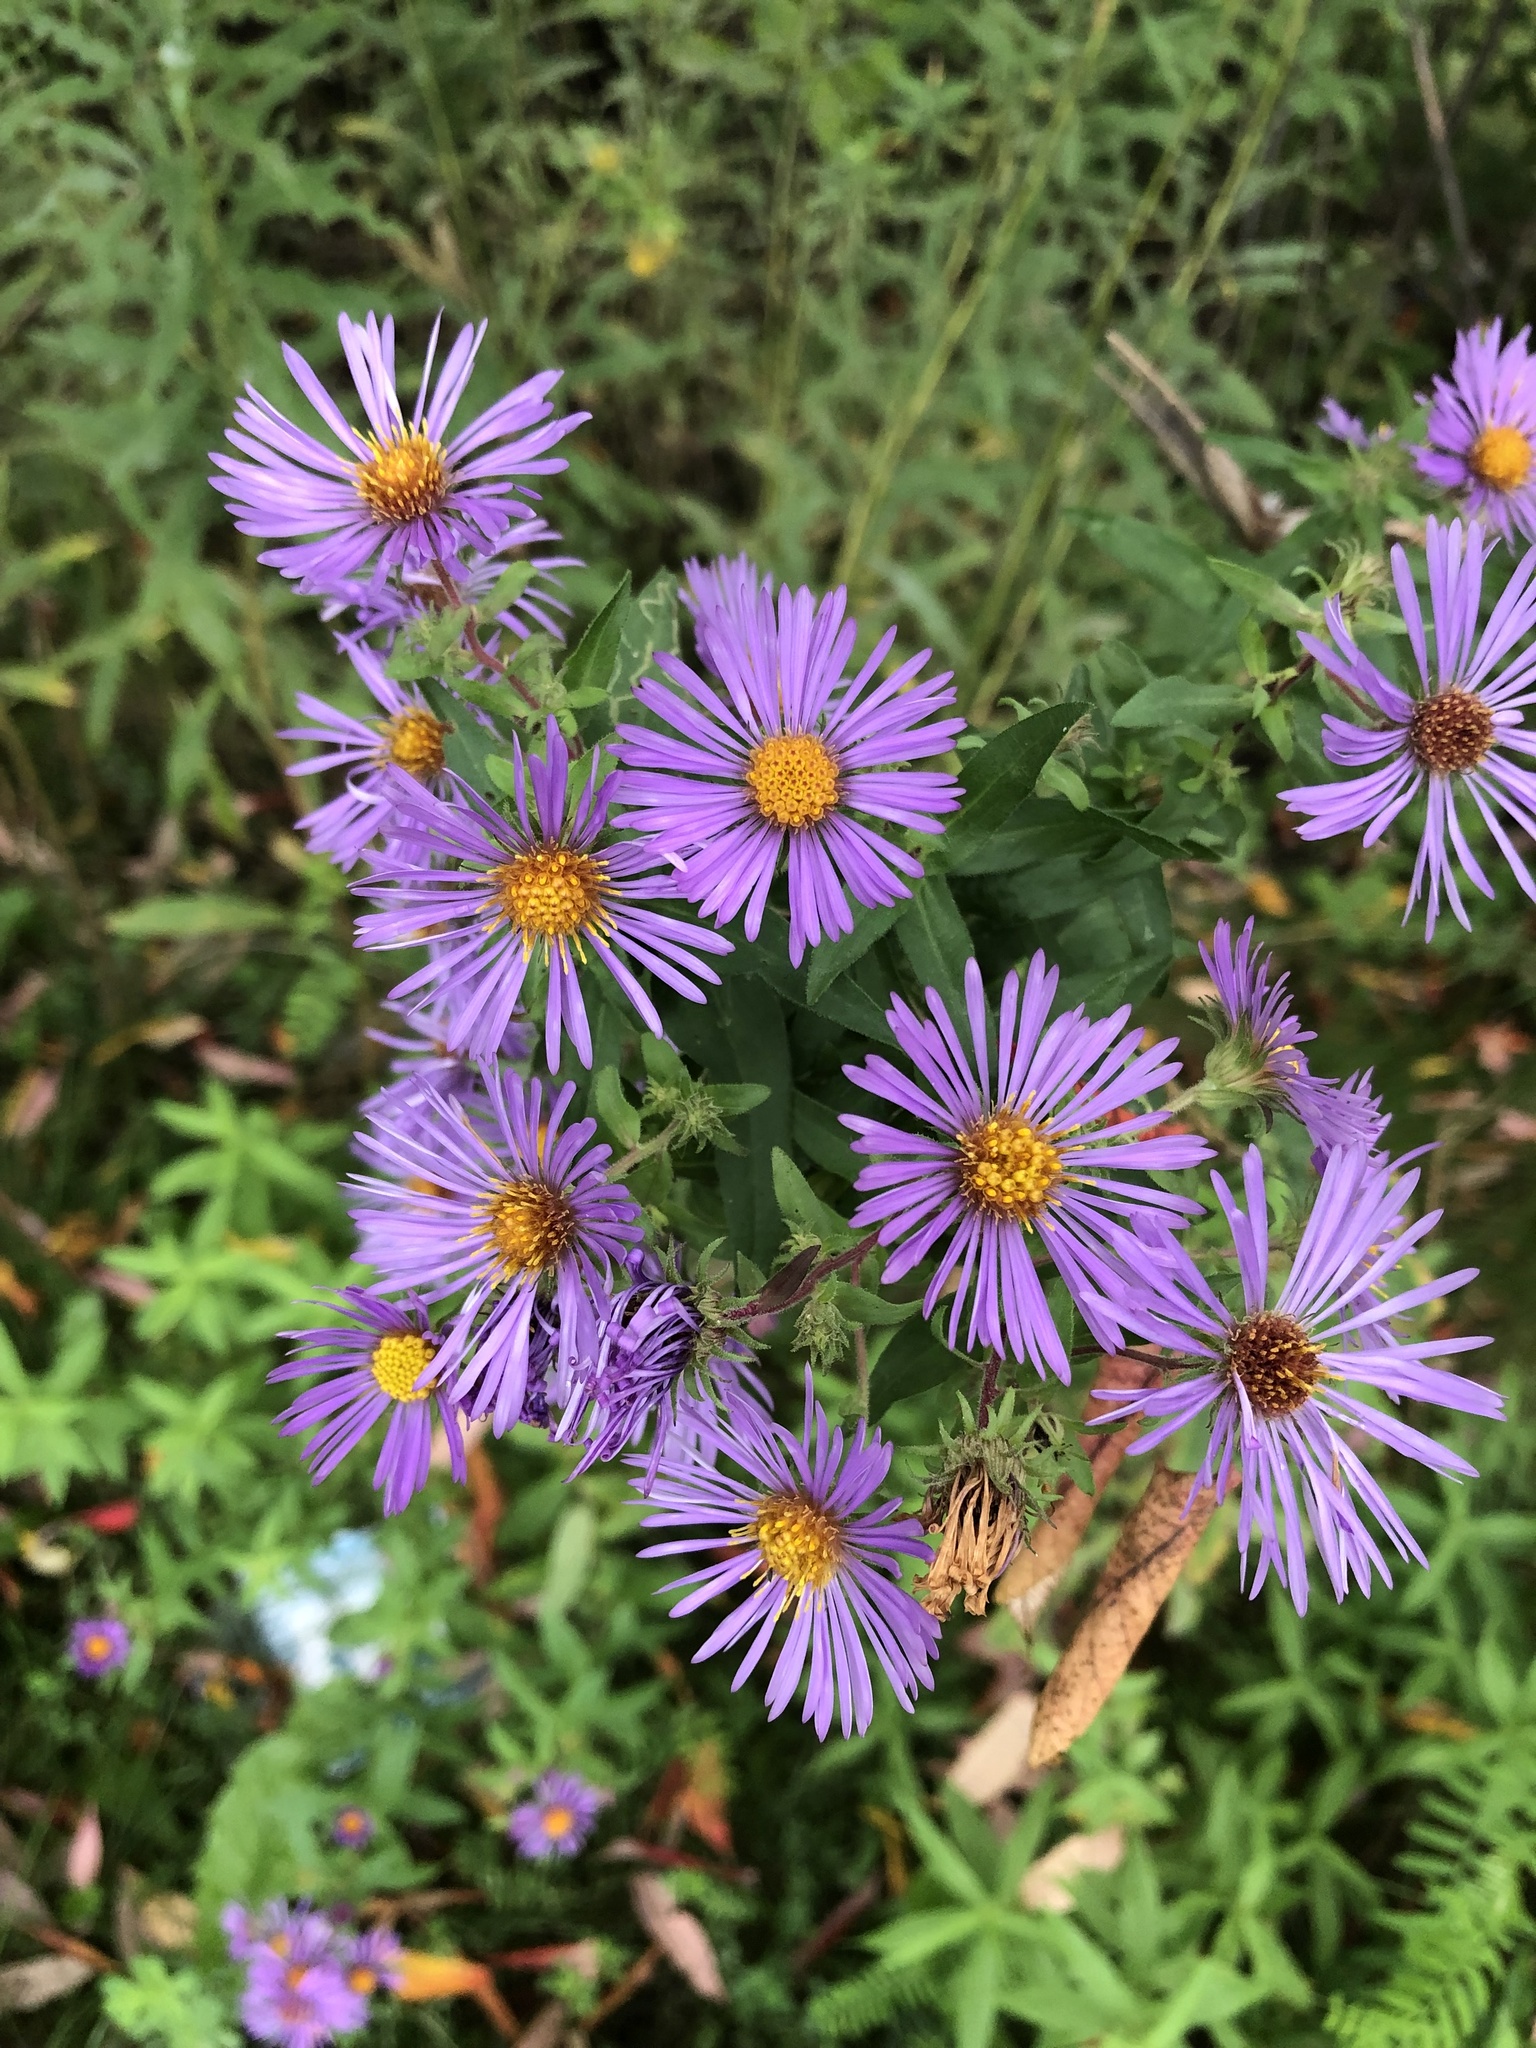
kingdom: Plantae
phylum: Tracheophyta
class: Magnoliopsida
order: Asterales
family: Asteraceae
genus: Symphyotrichum
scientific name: Symphyotrichum novae-angliae
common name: Michaelmas daisy
